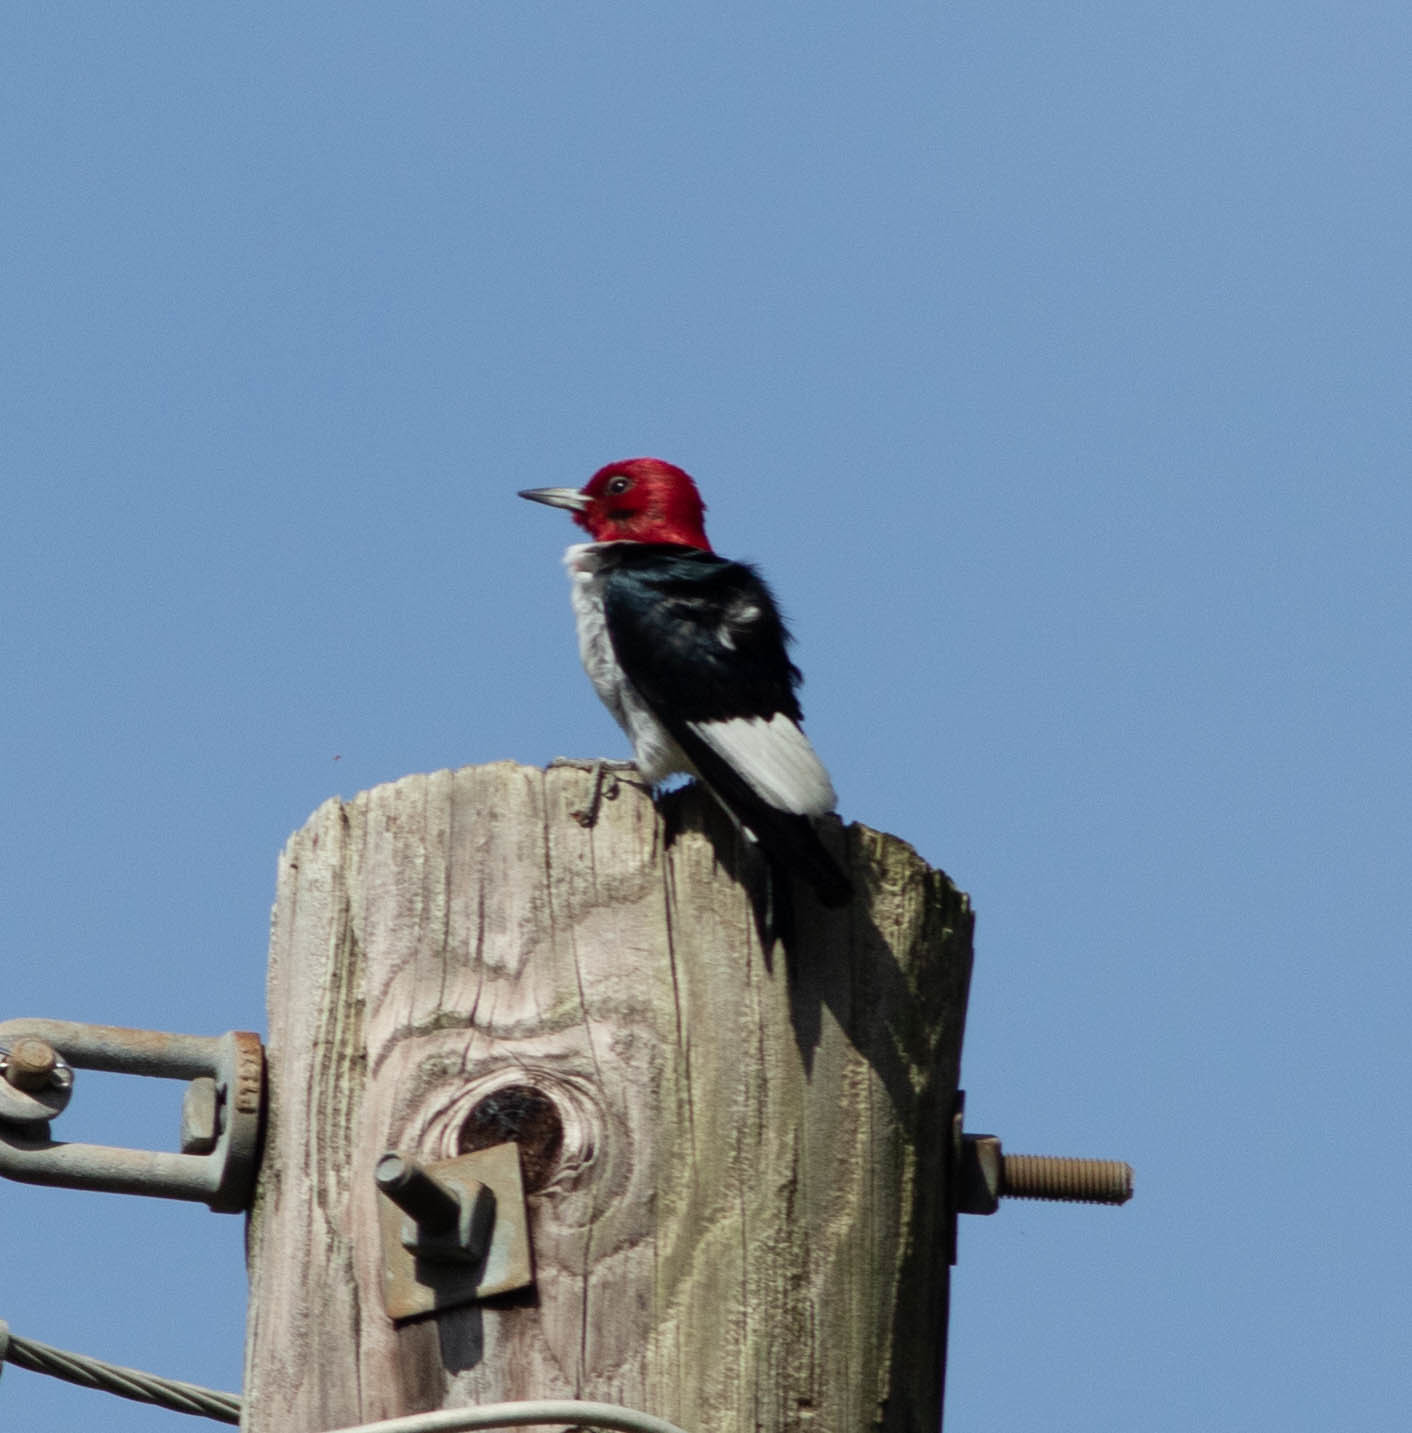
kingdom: Animalia
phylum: Chordata
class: Aves
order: Piciformes
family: Picidae
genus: Melanerpes
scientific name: Melanerpes erythrocephalus
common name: Red-headed woodpecker
